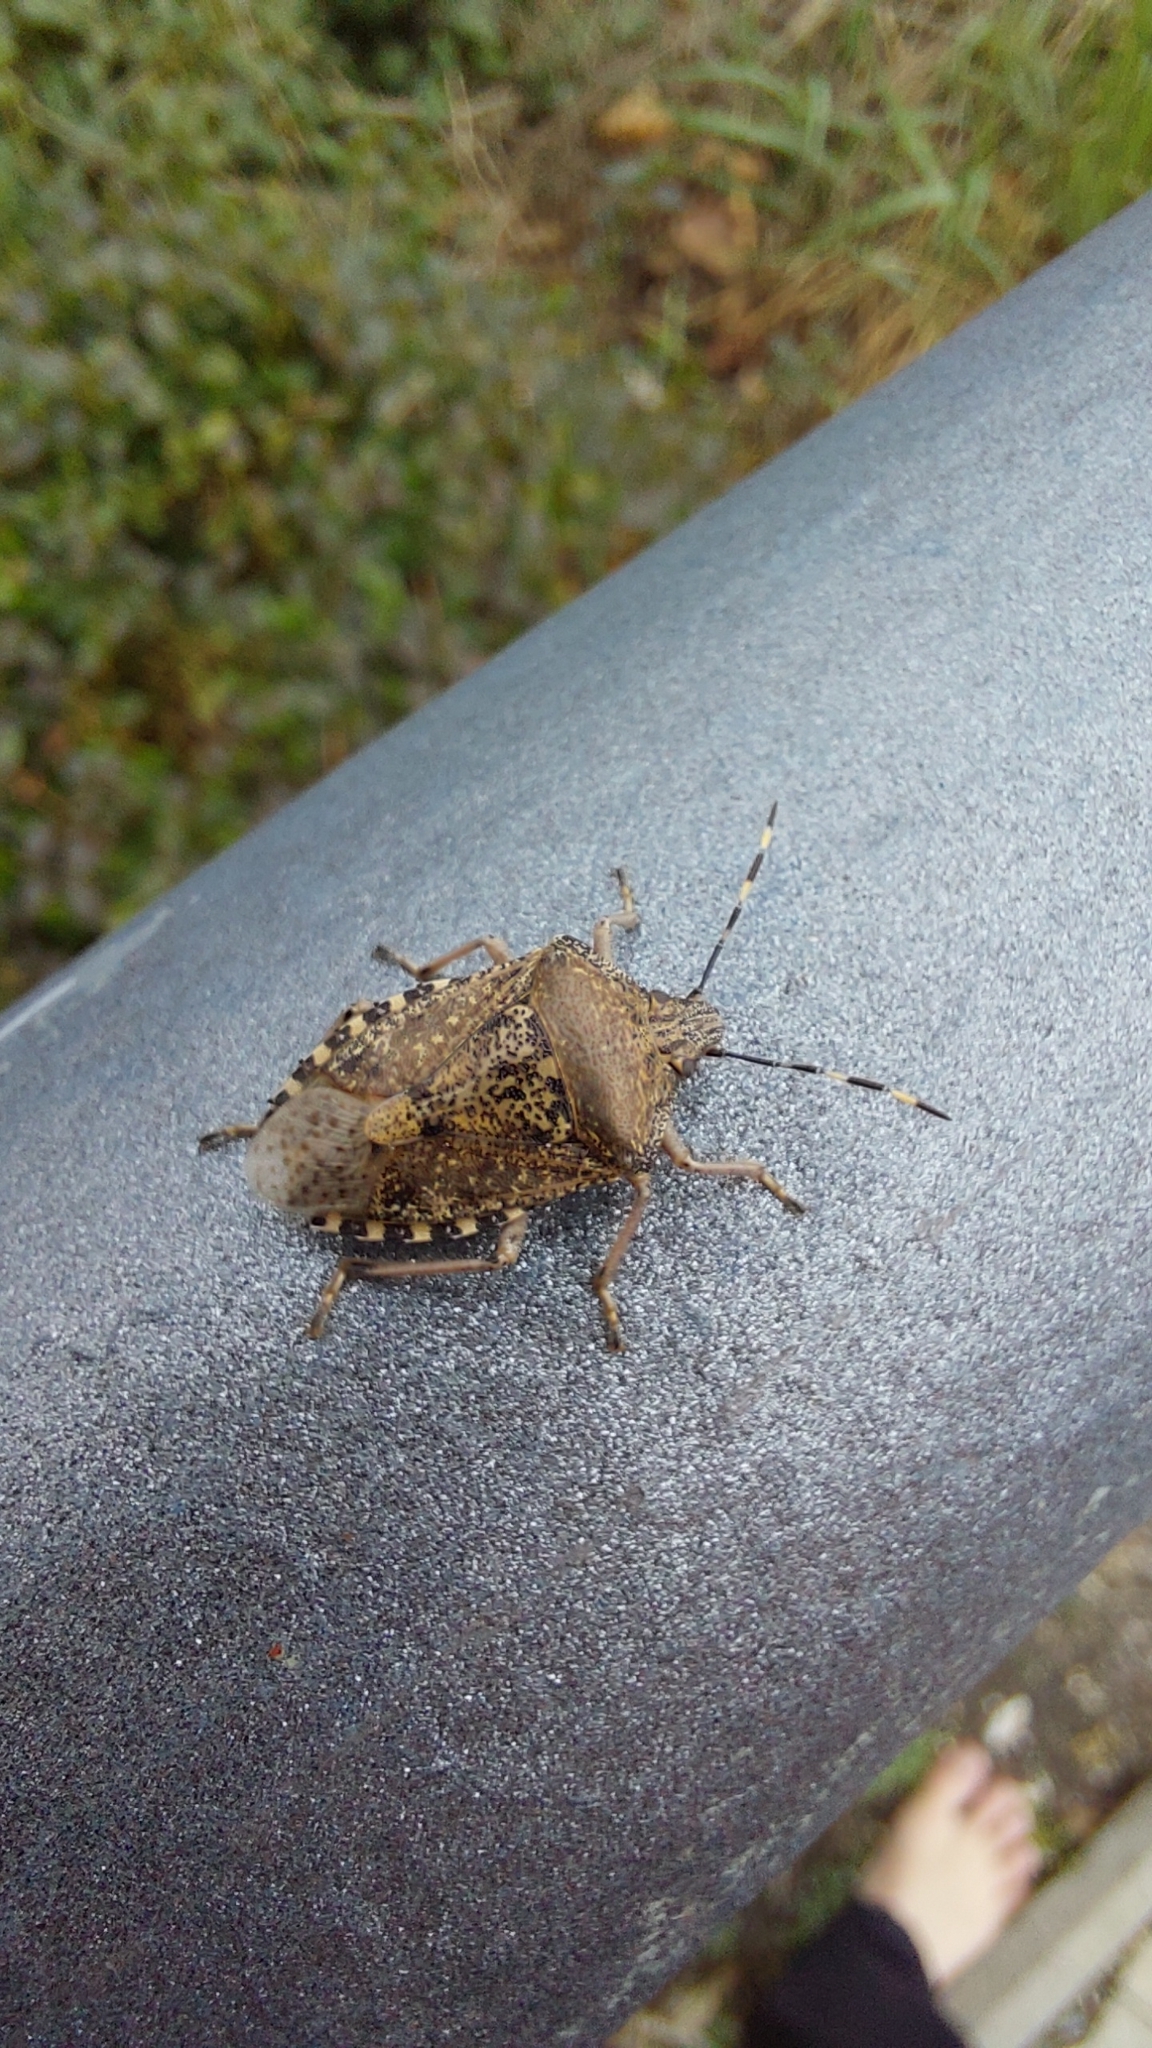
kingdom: Animalia
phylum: Arthropoda
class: Insecta
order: Hemiptera
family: Pentatomidae
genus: Rhaphigaster
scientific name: Rhaphigaster nebulosa
